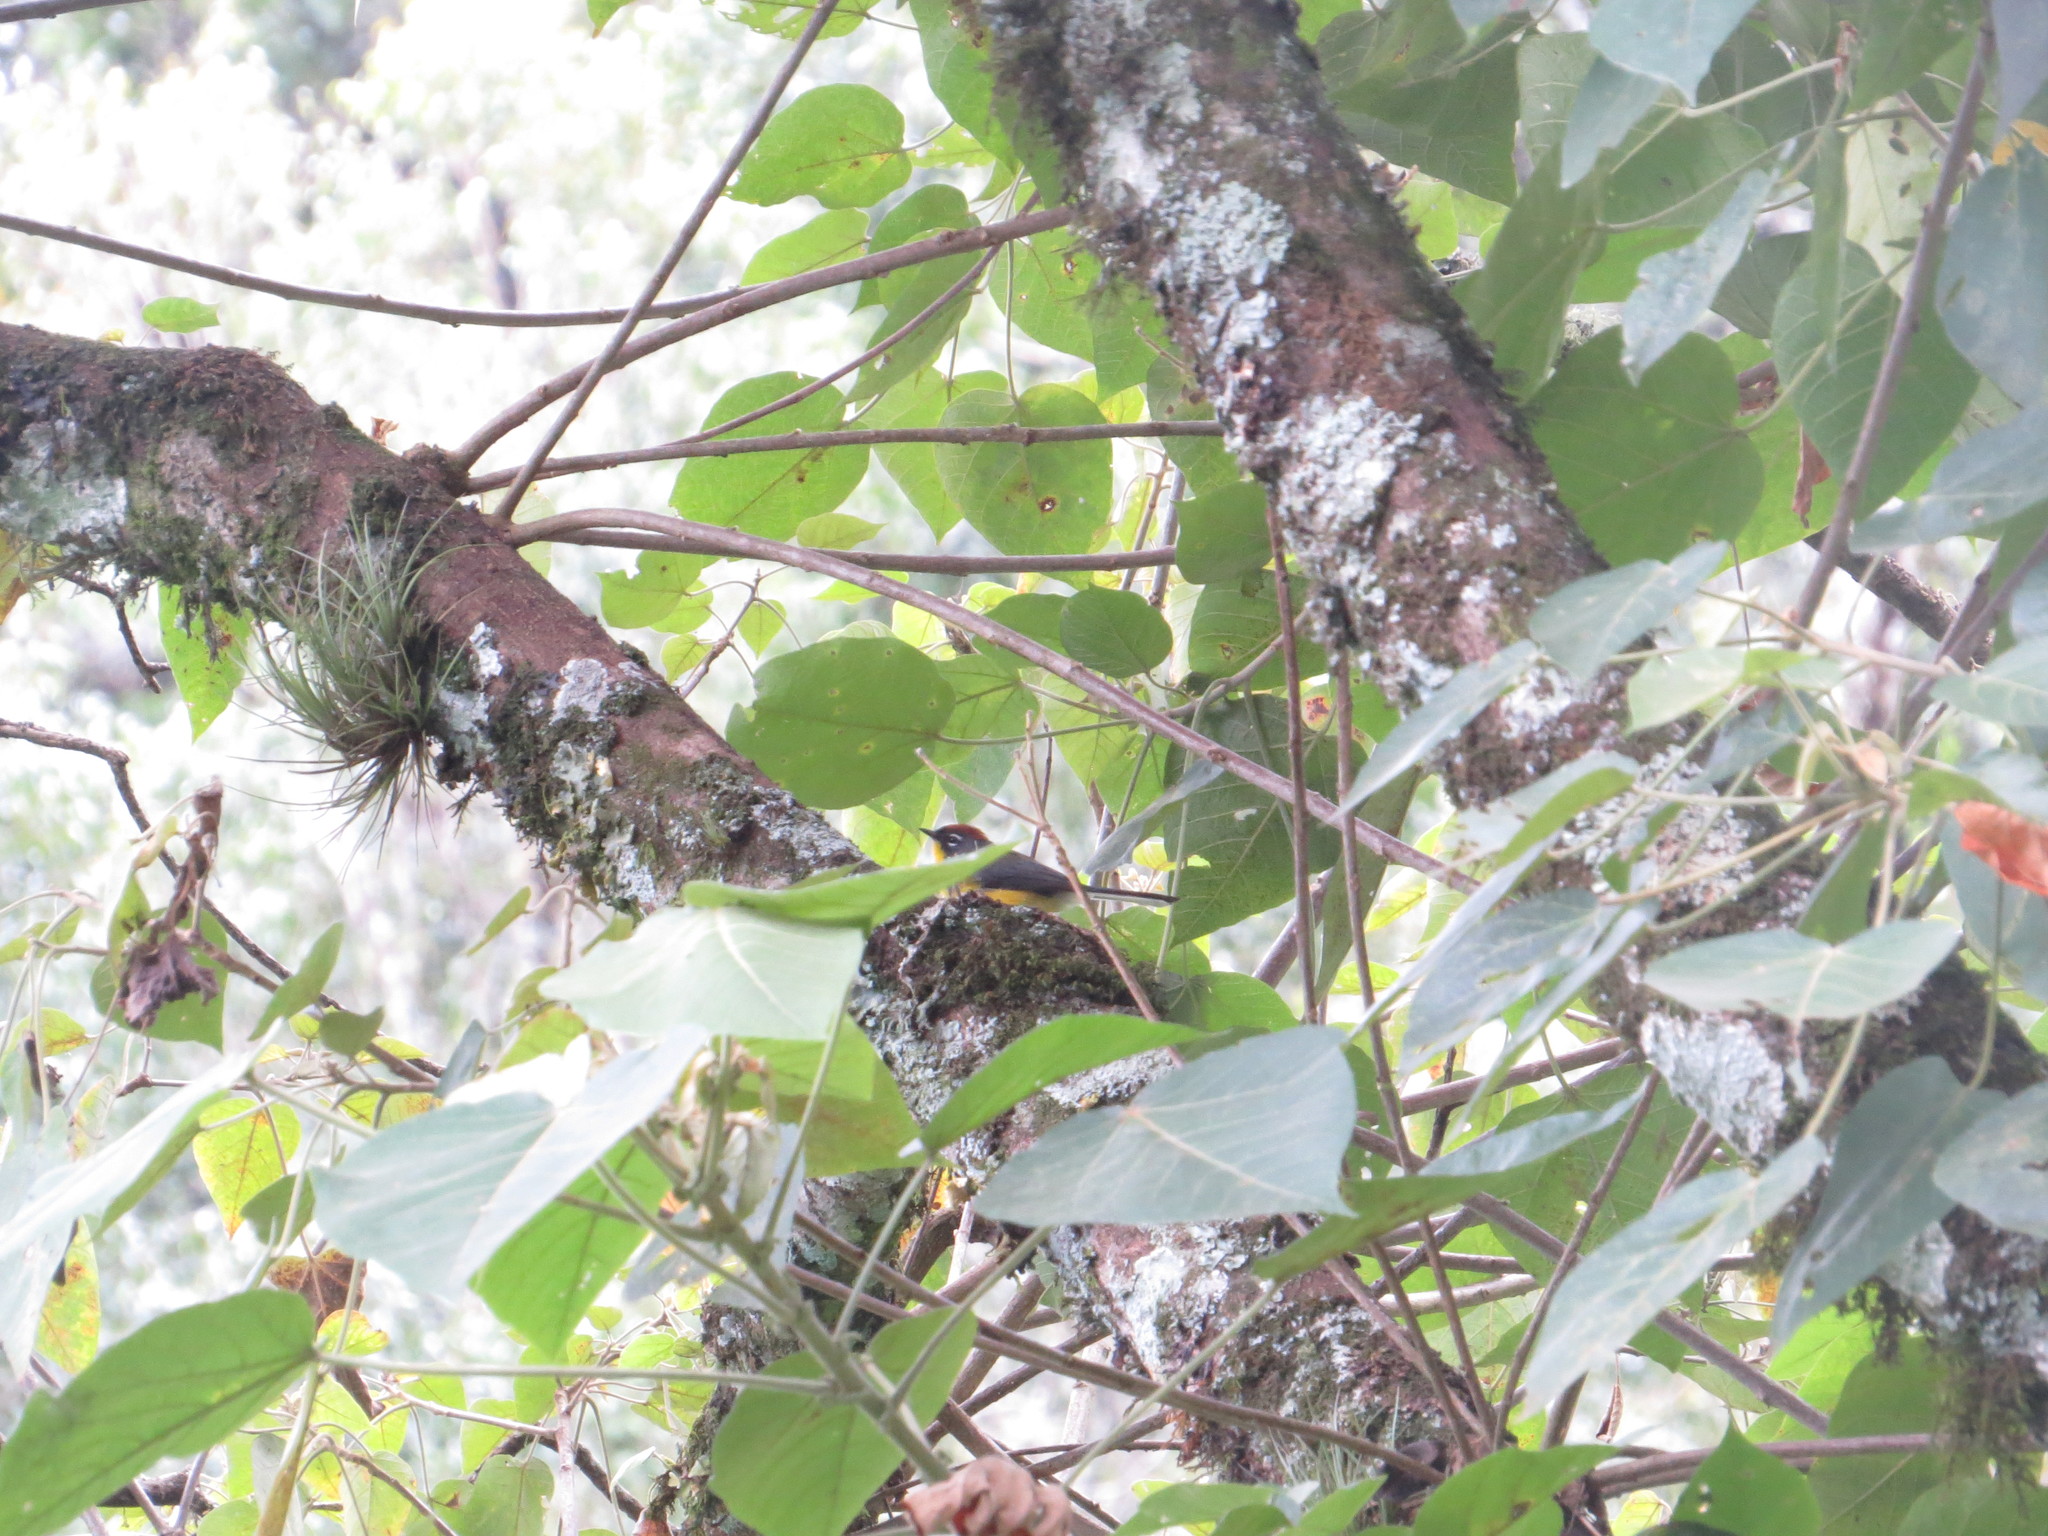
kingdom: Animalia
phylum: Chordata
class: Aves
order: Passeriformes
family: Parulidae
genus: Myioborus
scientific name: Myioborus brunniceps
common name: Brown-capped whitestart
